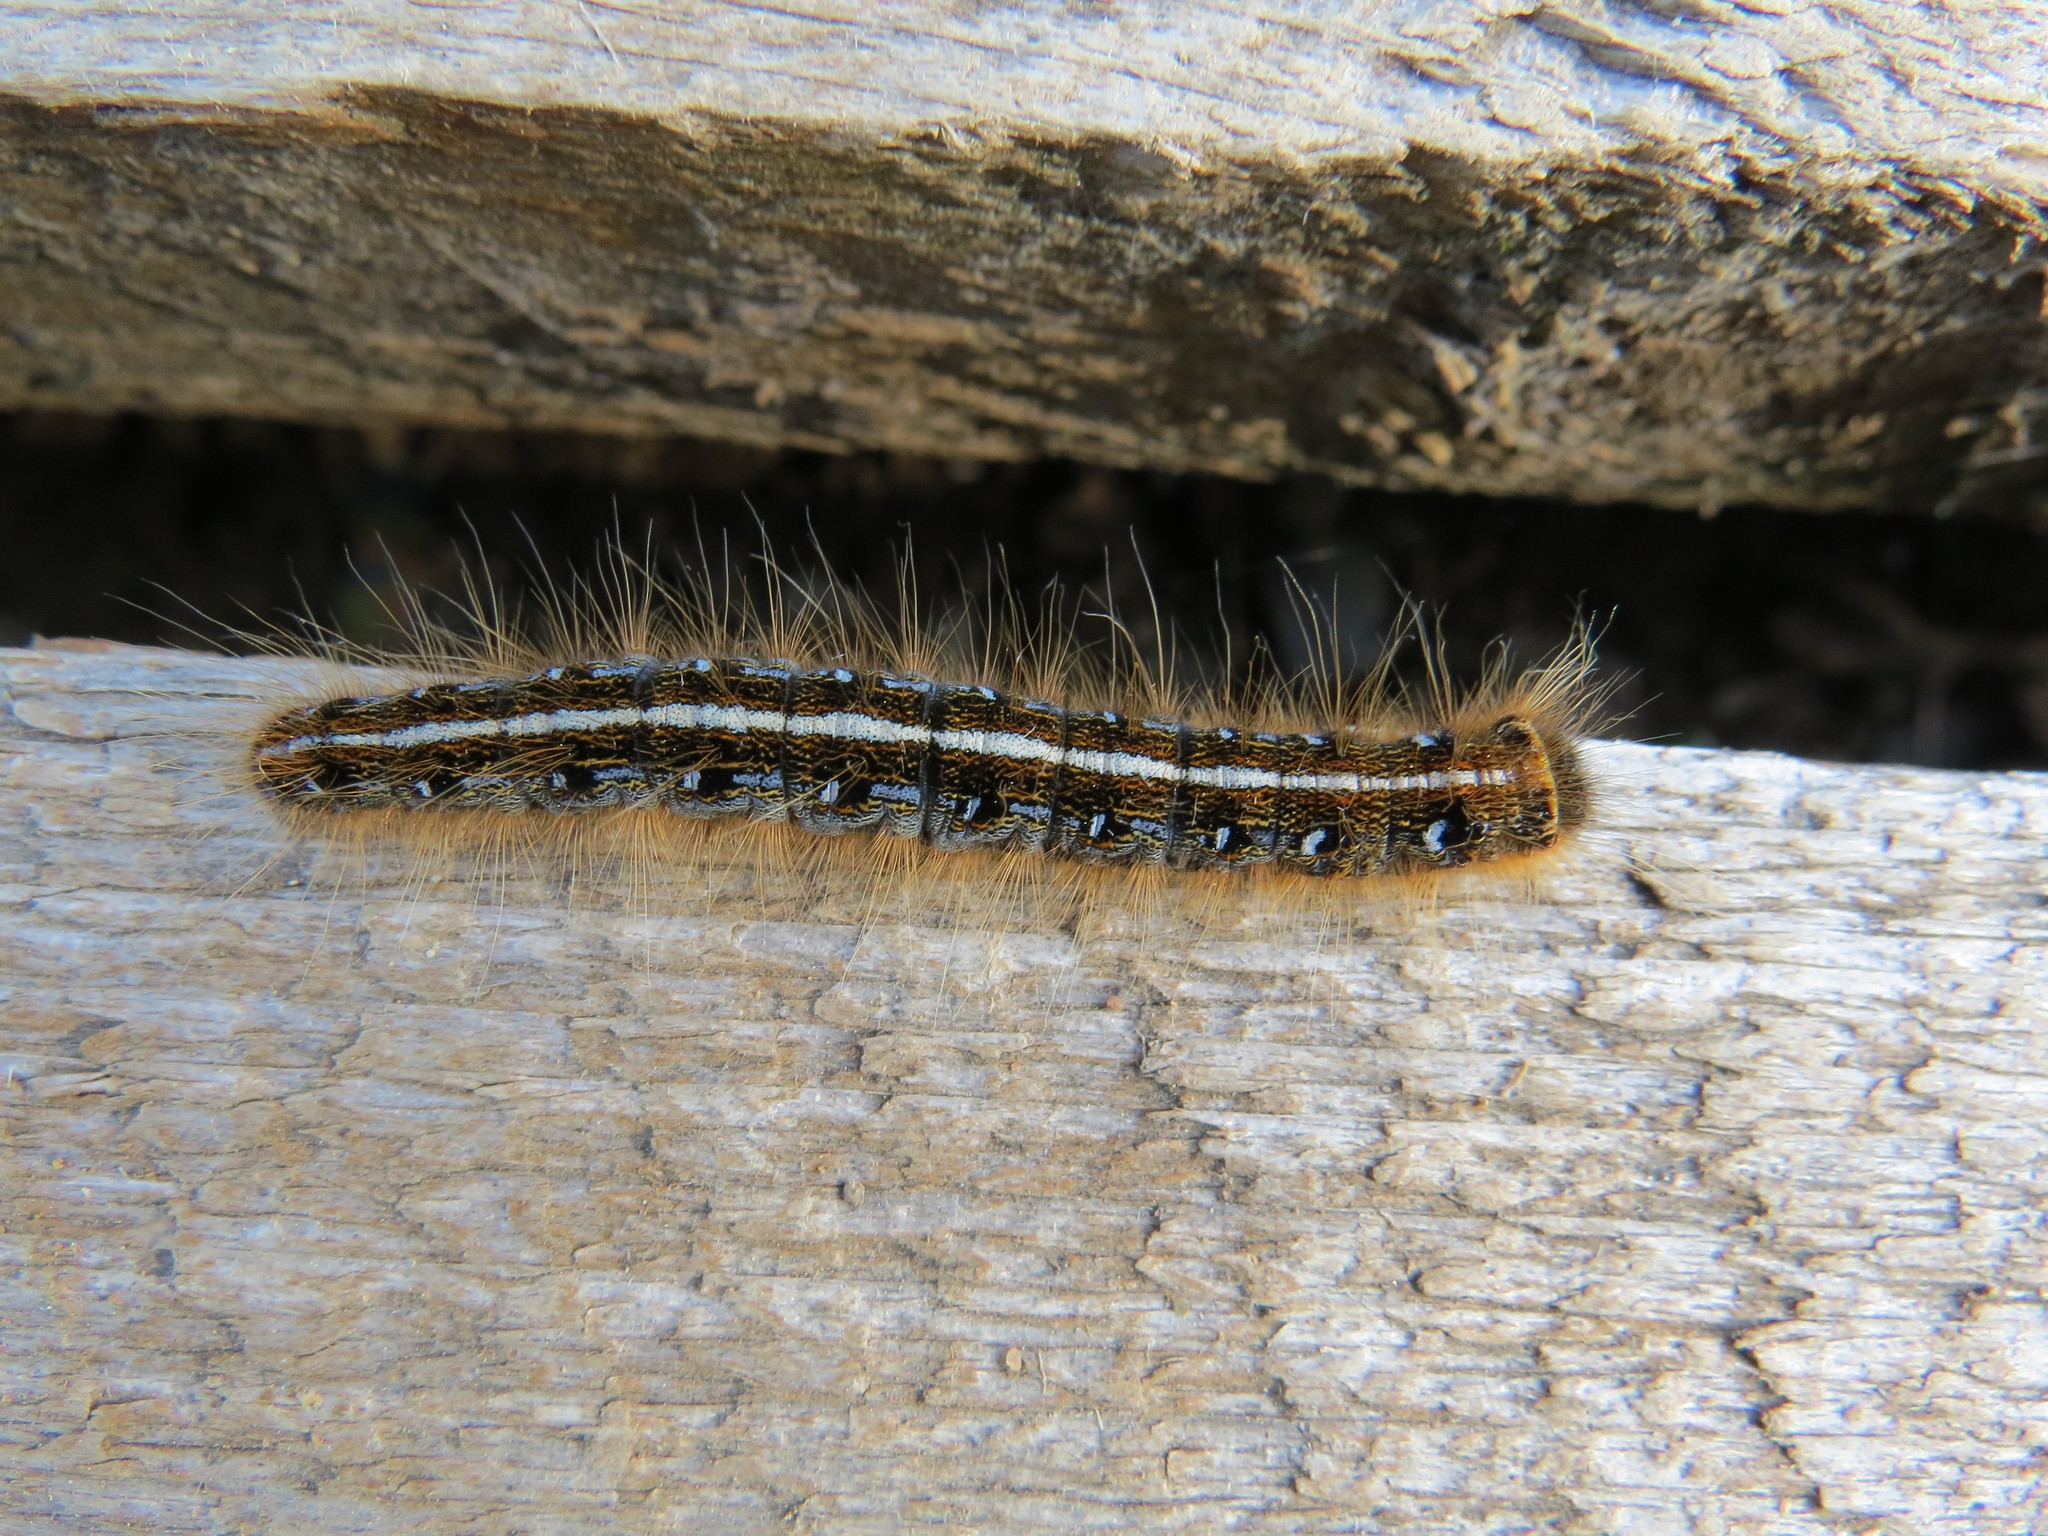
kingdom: Animalia
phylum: Arthropoda
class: Insecta
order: Lepidoptera
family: Lasiocampidae
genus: Malacosoma
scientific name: Malacosoma americana
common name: Eastern tent caterpillar moth
